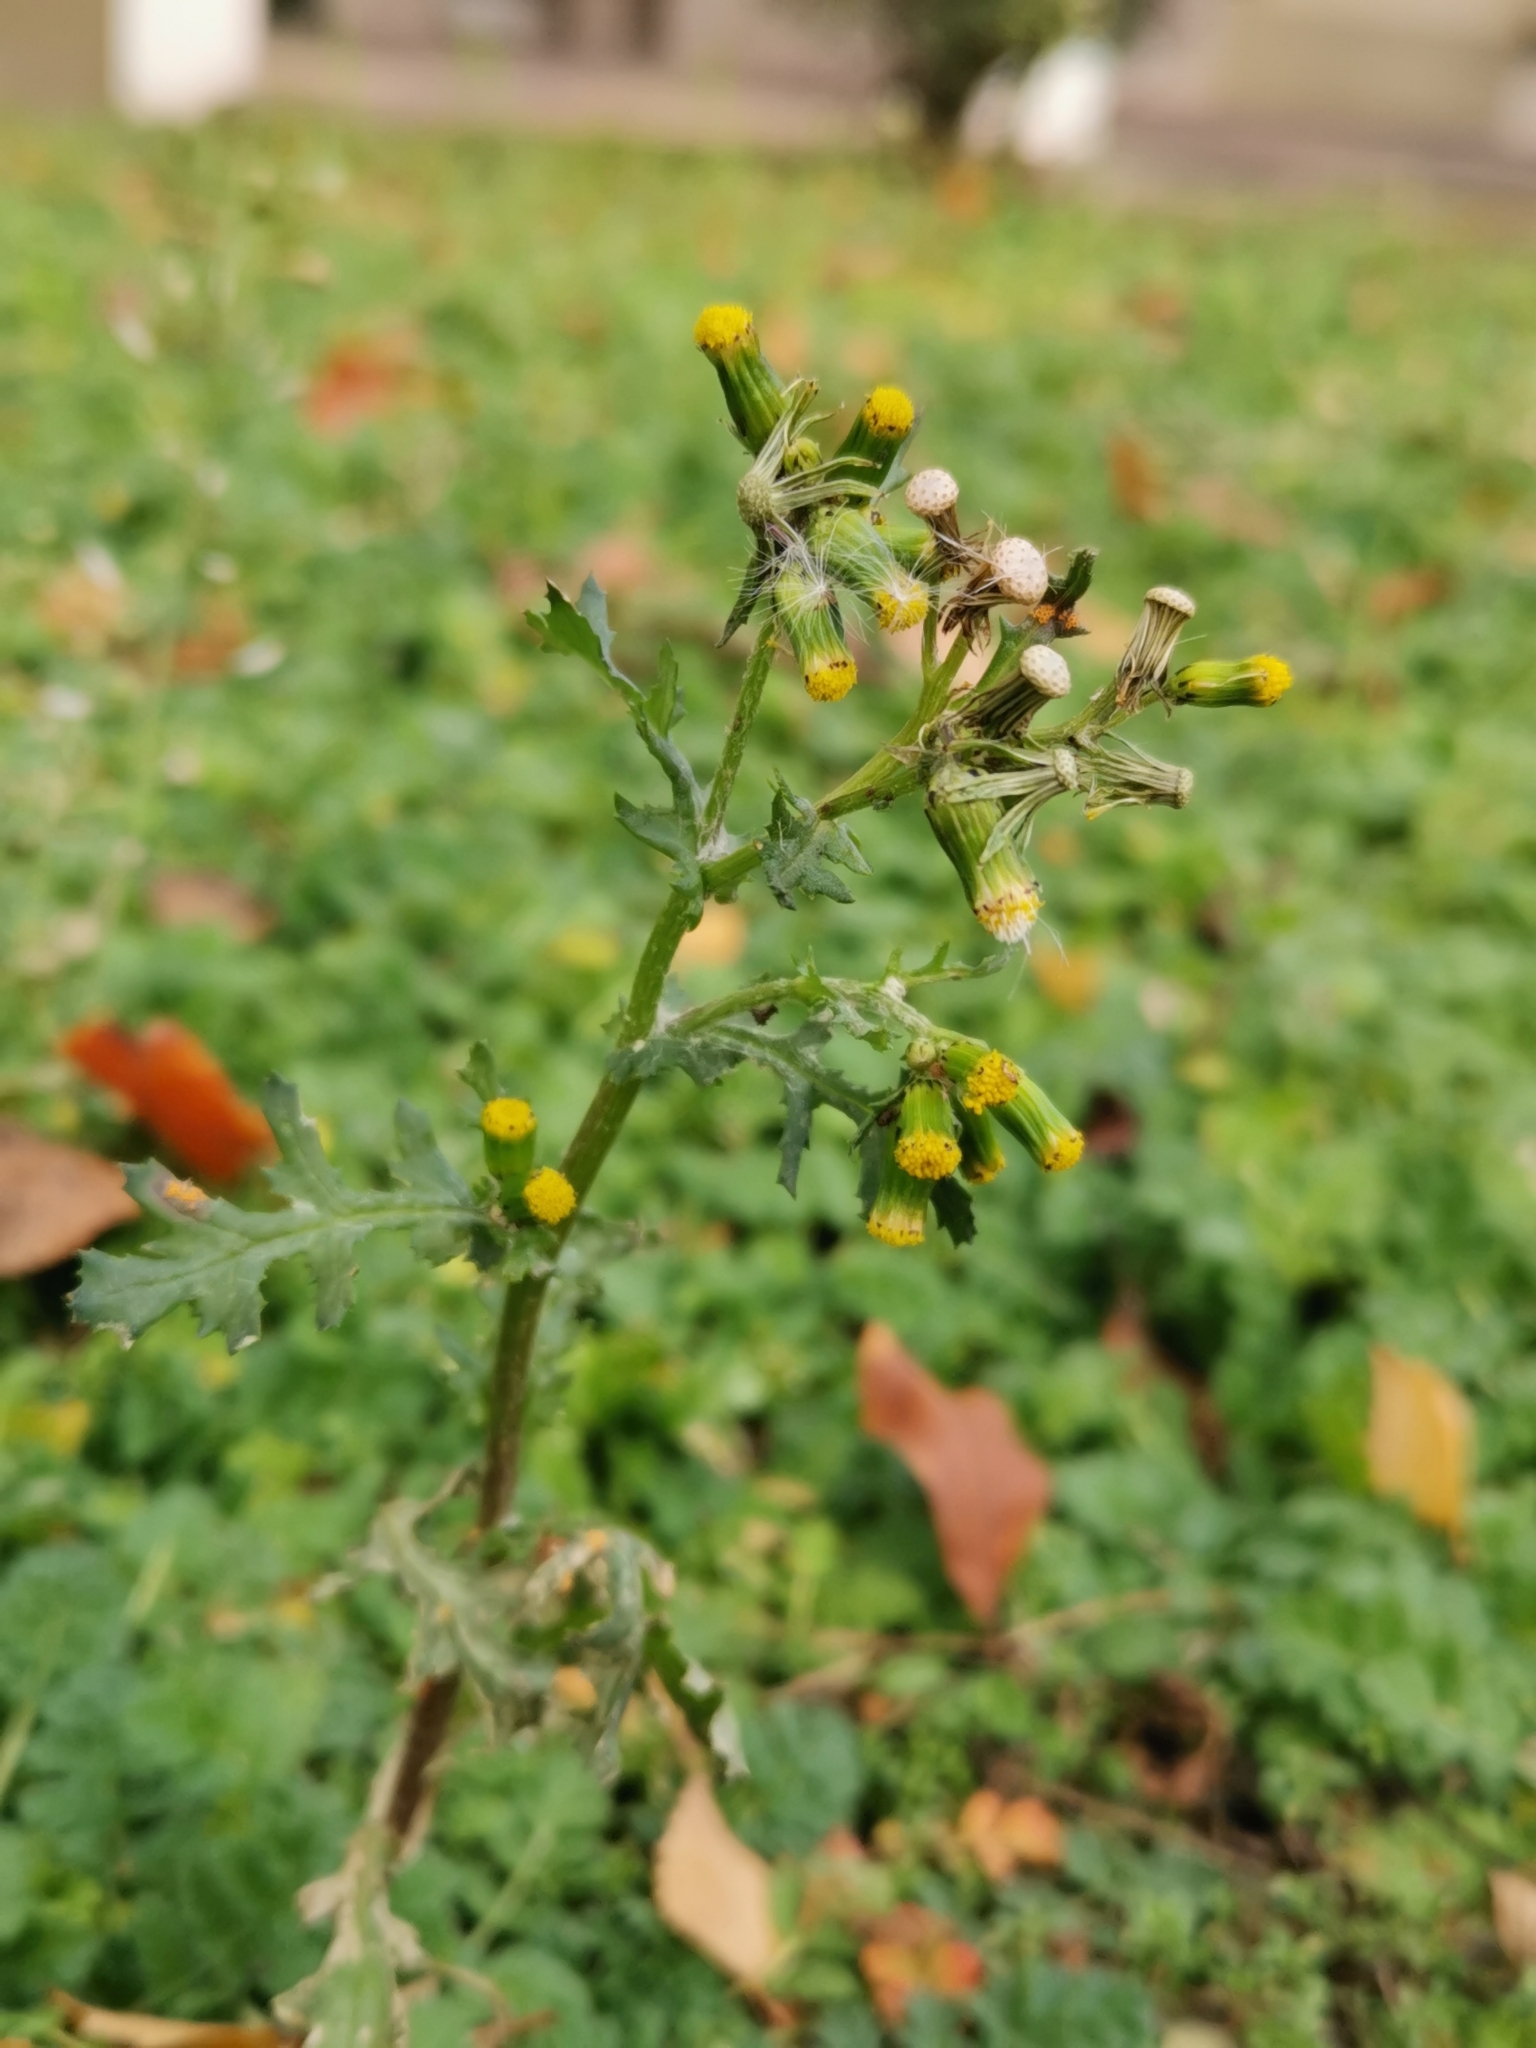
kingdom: Plantae
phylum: Tracheophyta
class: Magnoliopsida
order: Asterales
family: Asteraceae
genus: Senecio
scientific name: Senecio vulgaris
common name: Old-man-in-the-spring
